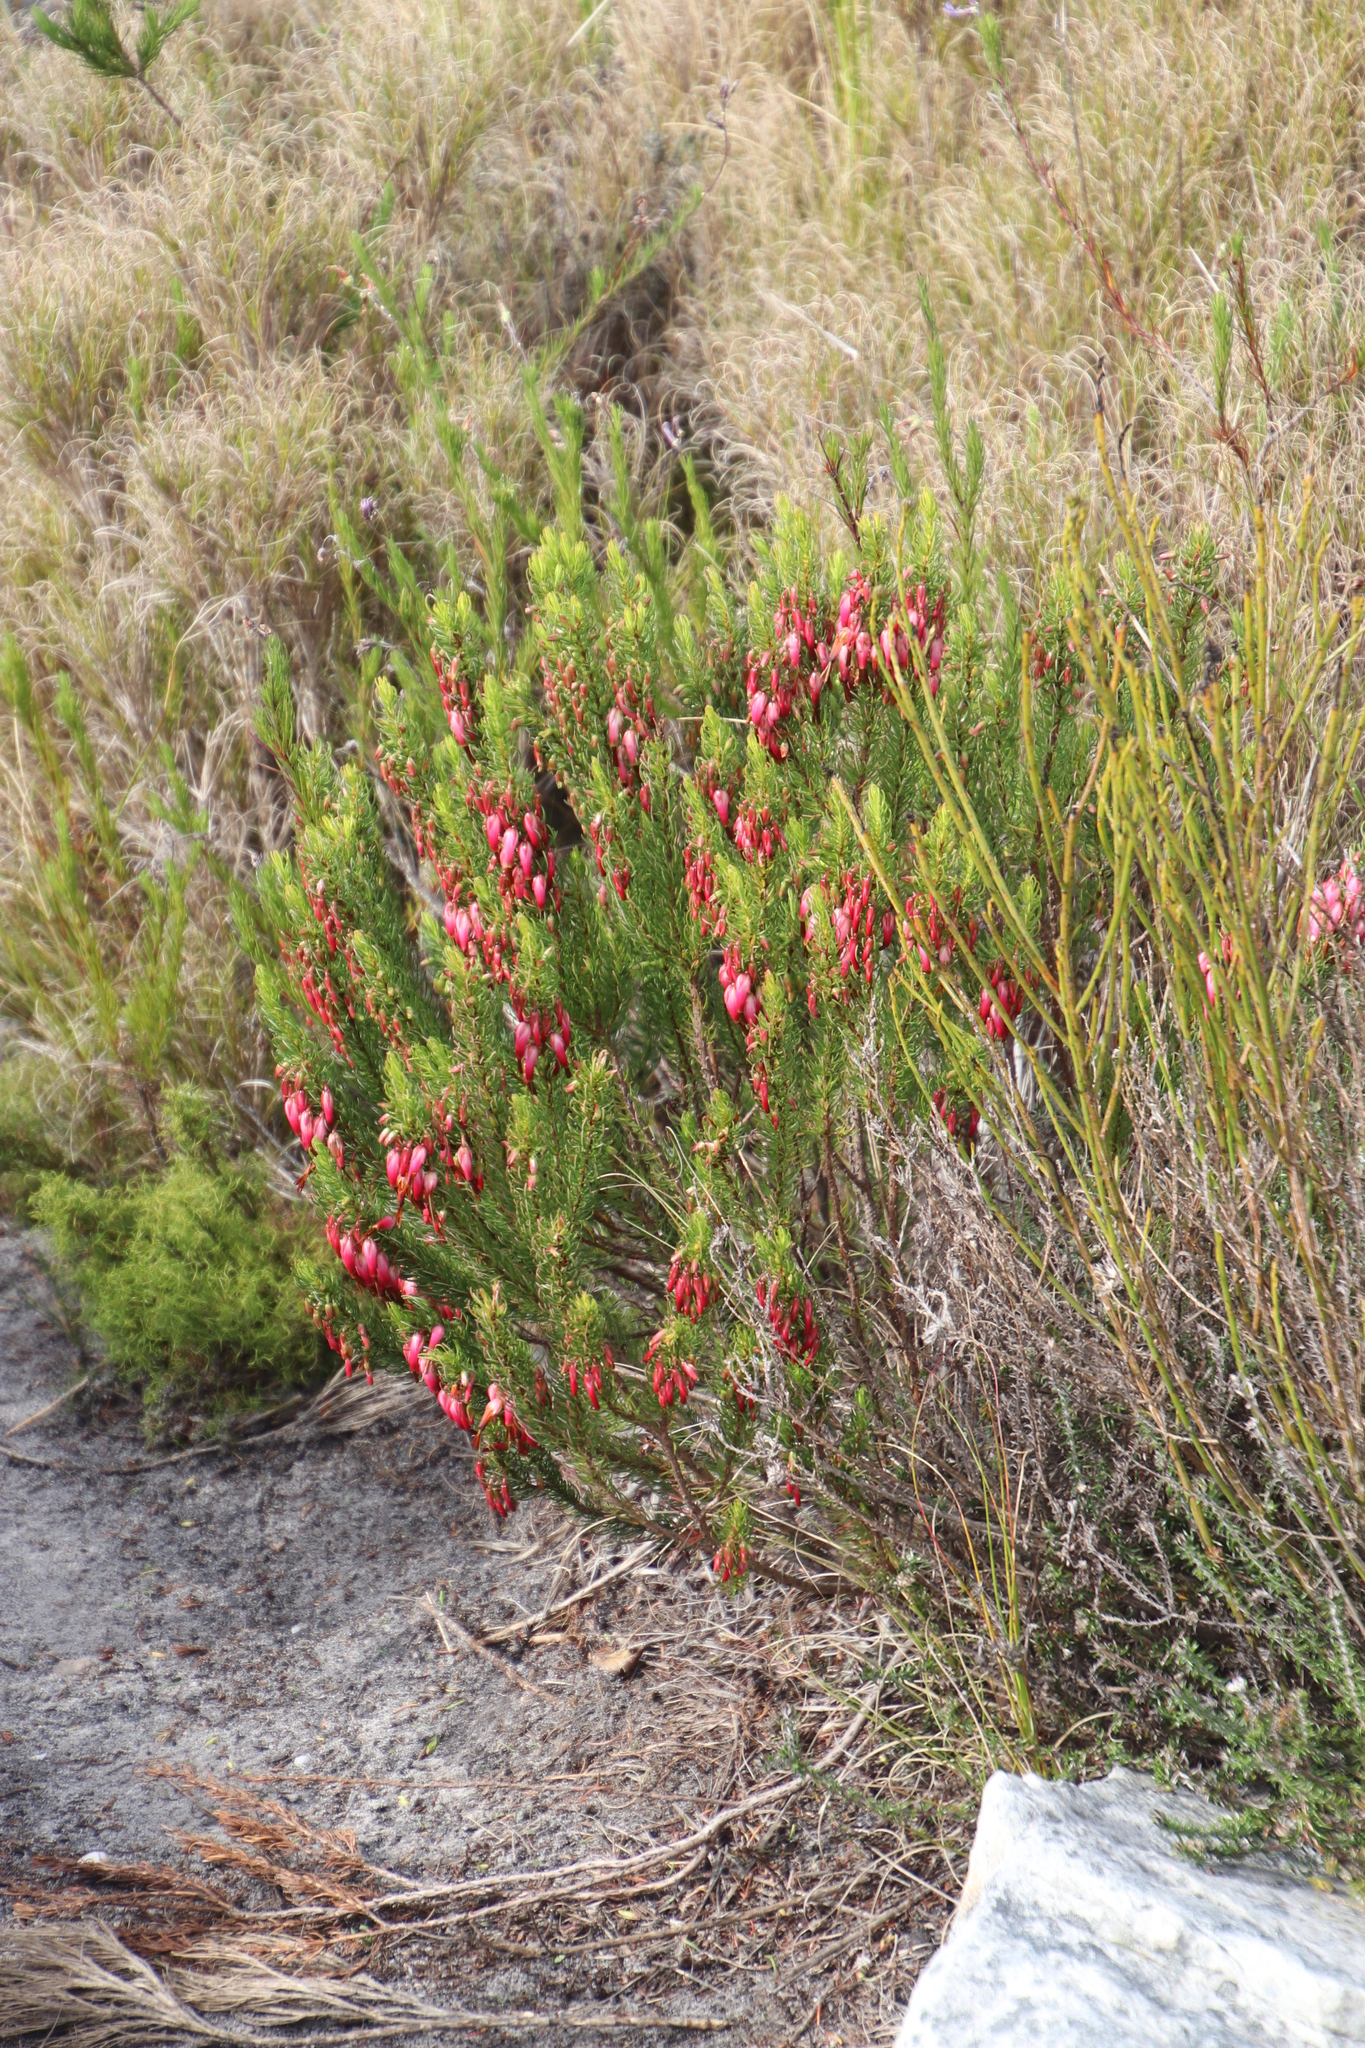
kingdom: Plantae
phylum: Tracheophyta
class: Magnoliopsida
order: Ericales
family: Ericaceae
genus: Erica
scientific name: Erica plukenetii
